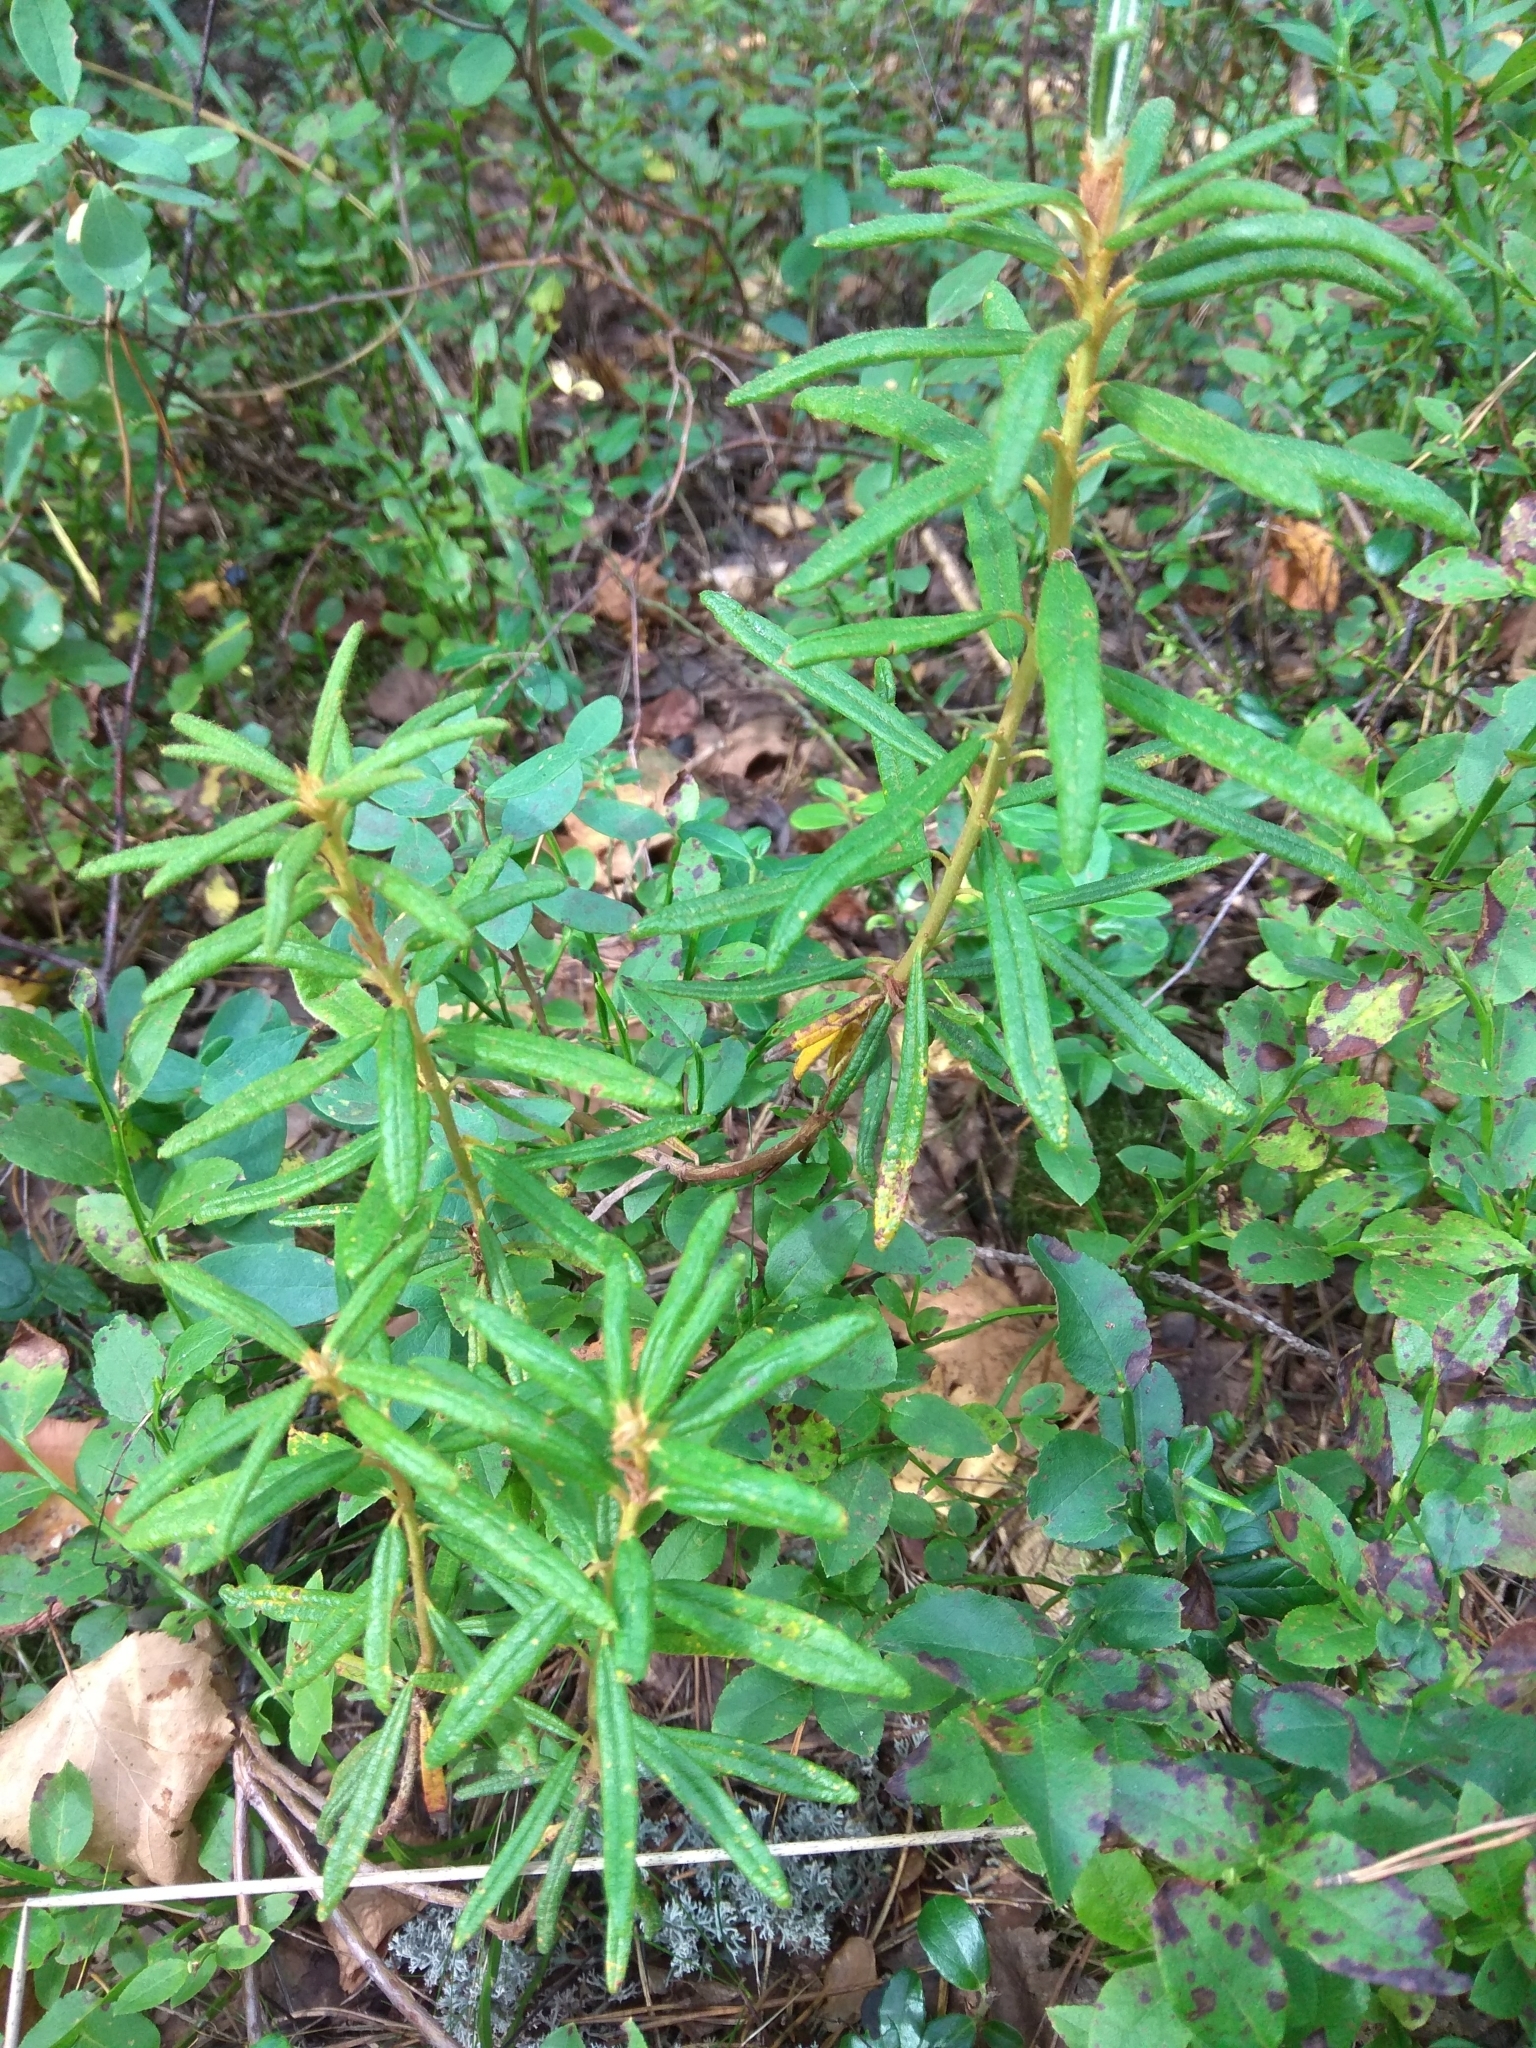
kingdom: Plantae
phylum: Tracheophyta
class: Magnoliopsida
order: Ericales
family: Ericaceae
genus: Rhododendron
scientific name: Rhododendron tomentosum
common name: Marsh labrador tea
